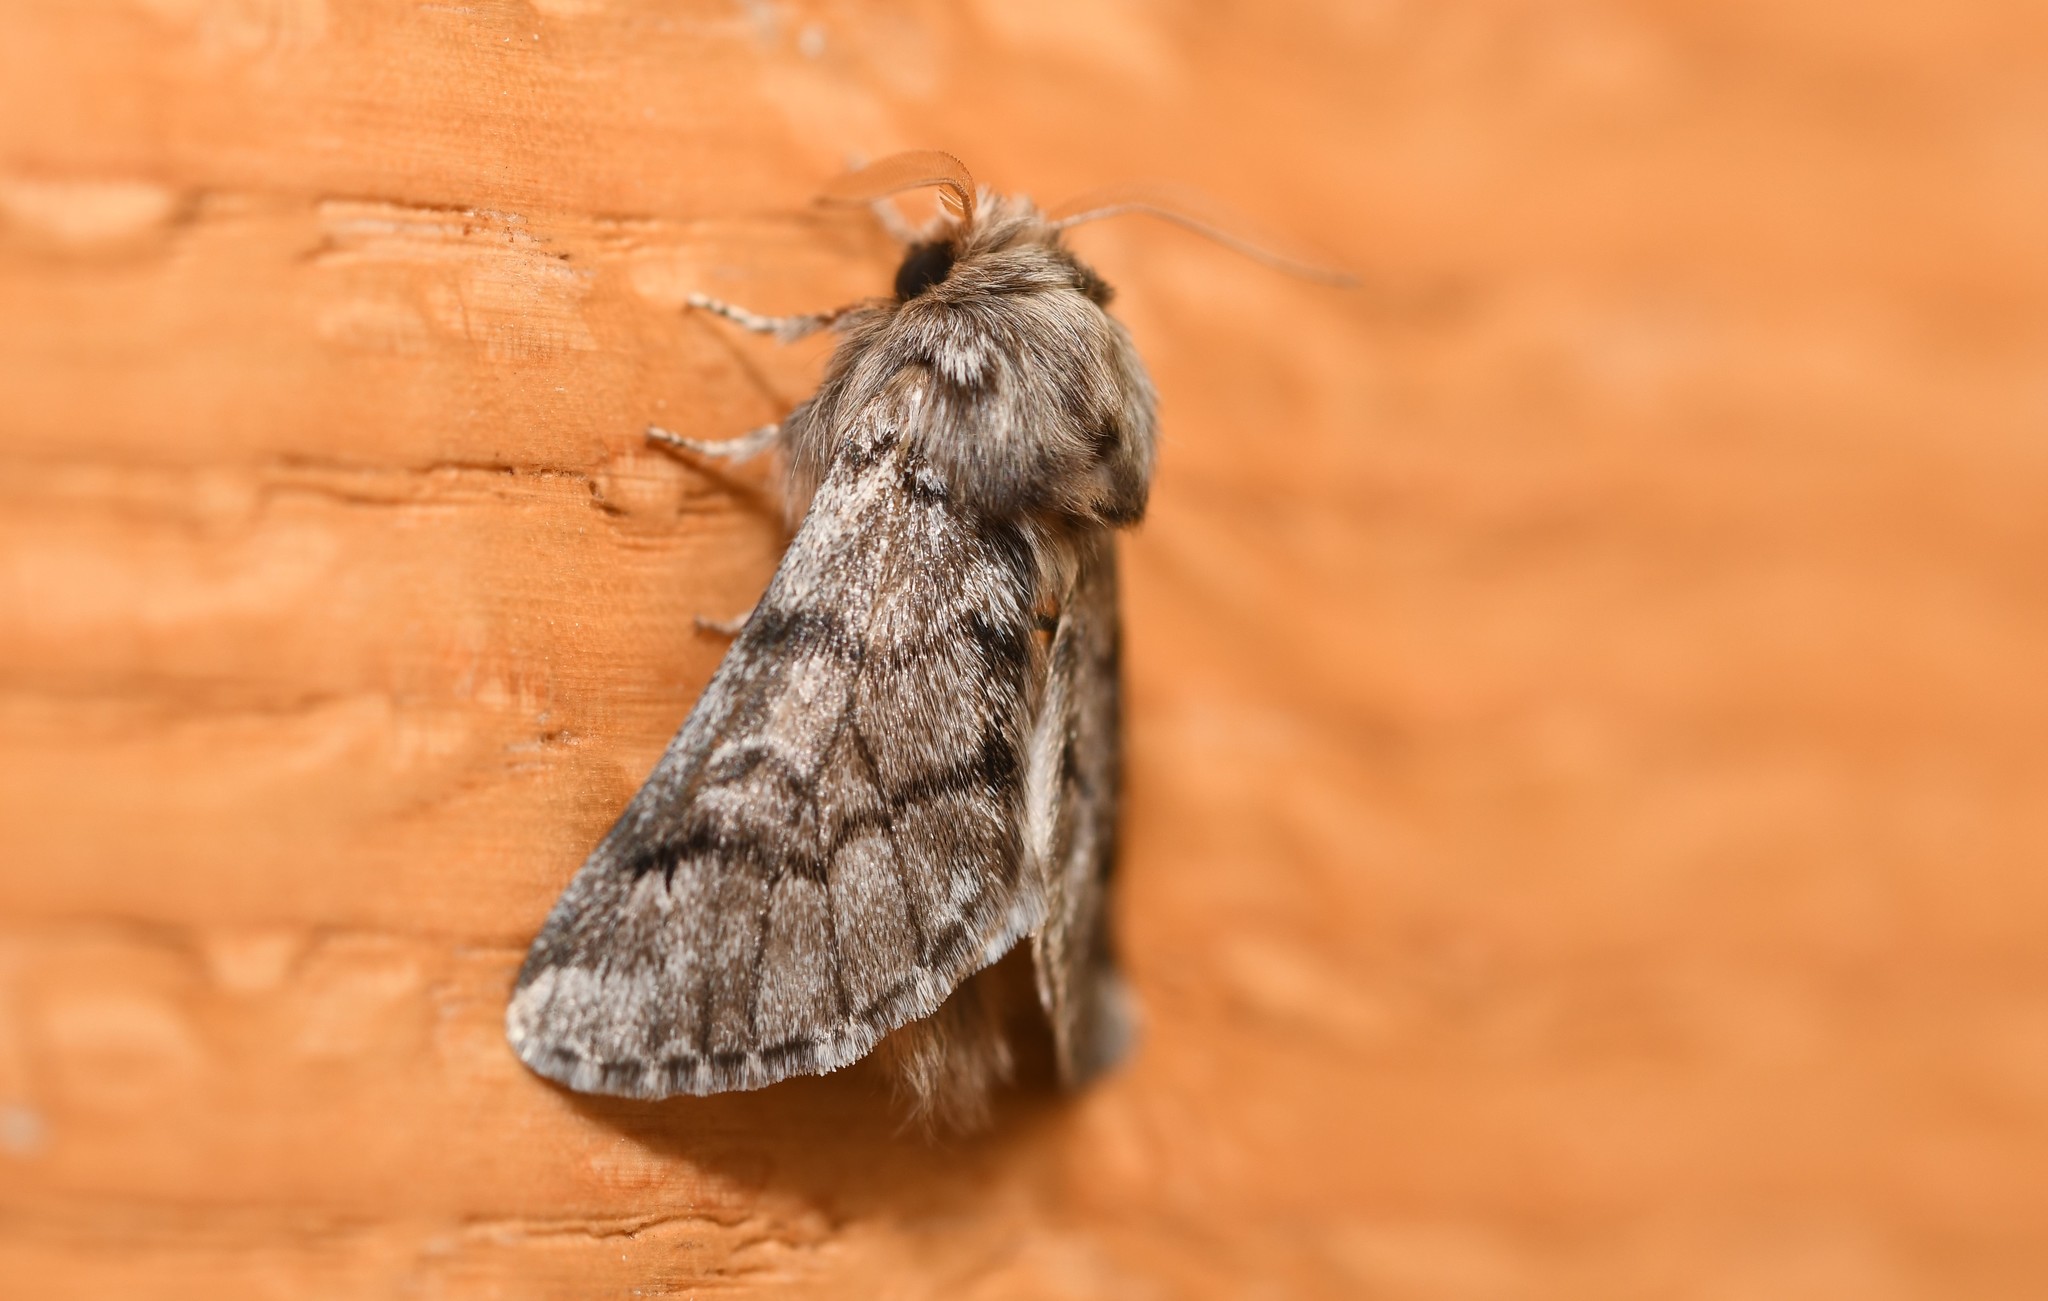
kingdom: Animalia
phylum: Arthropoda
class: Insecta
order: Lepidoptera
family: Notodontidae
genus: Thaumetopoea
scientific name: Thaumetopoea pityocampa
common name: Pine processionary
